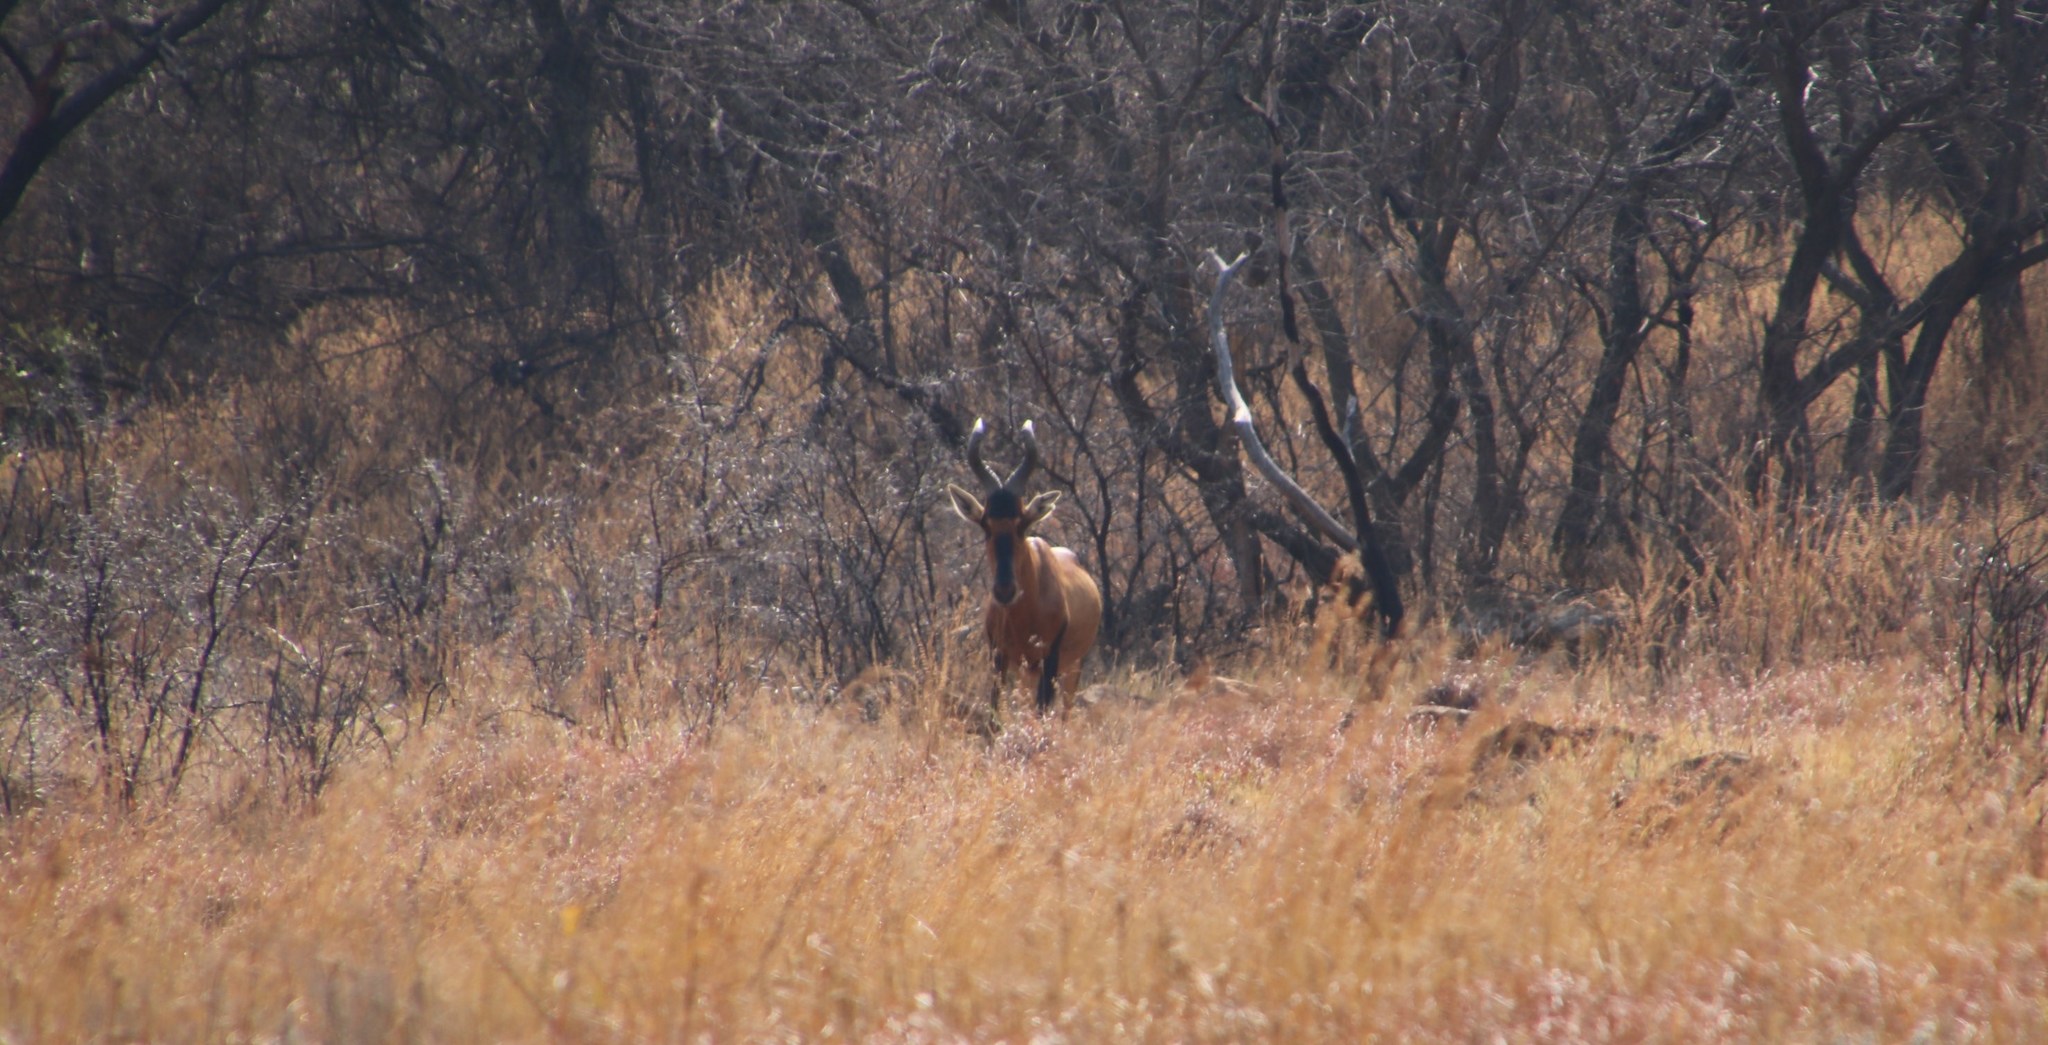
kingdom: Animalia
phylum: Chordata
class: Mammalia
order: Artiodactyla
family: Bovidae
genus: Alcelaphus
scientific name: Alcelaphus caama
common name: Red hartebeest
